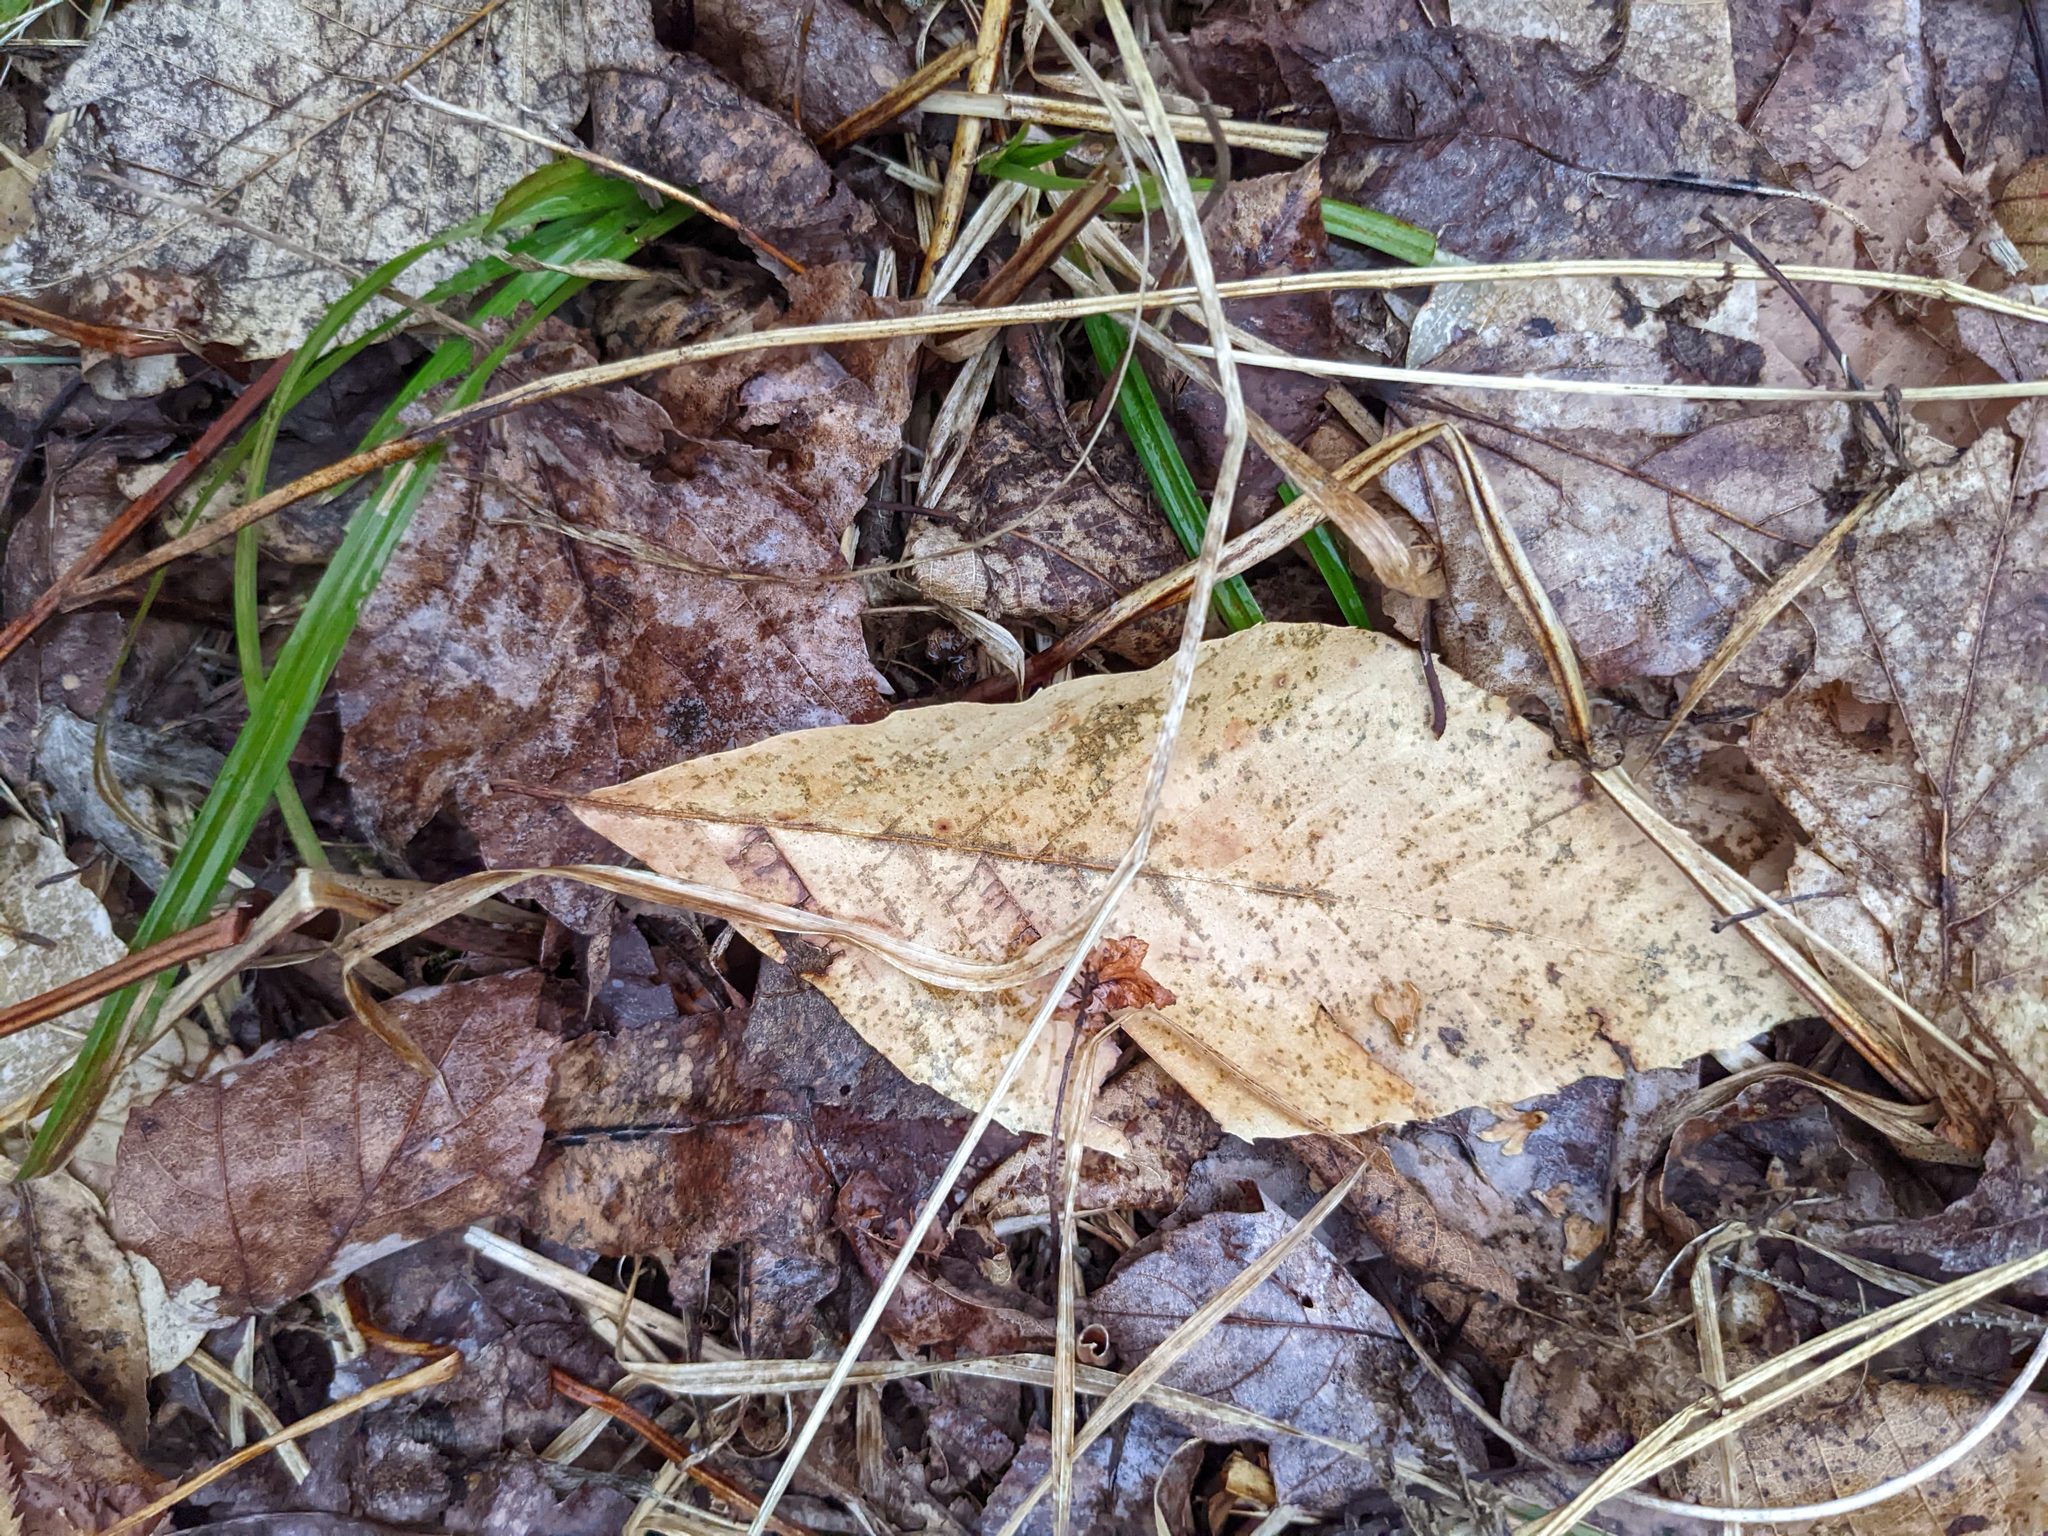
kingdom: Plantae
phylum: Tracheophyta
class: Magnoliopsida
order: Fagales
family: Fagaceae
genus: Fagus
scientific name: Fagus grandifolia
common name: American beech
